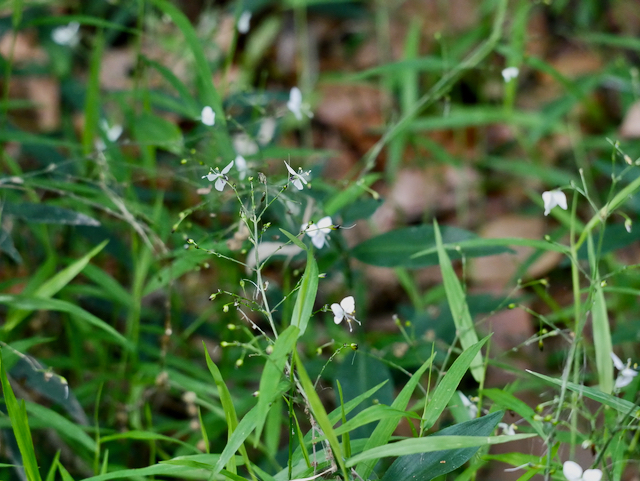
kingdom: Plantae
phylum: Tracheophyta
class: Liliopsida
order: Commelinales
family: Commelinaceae
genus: Aneilema
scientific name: Aneilema acuminatum
